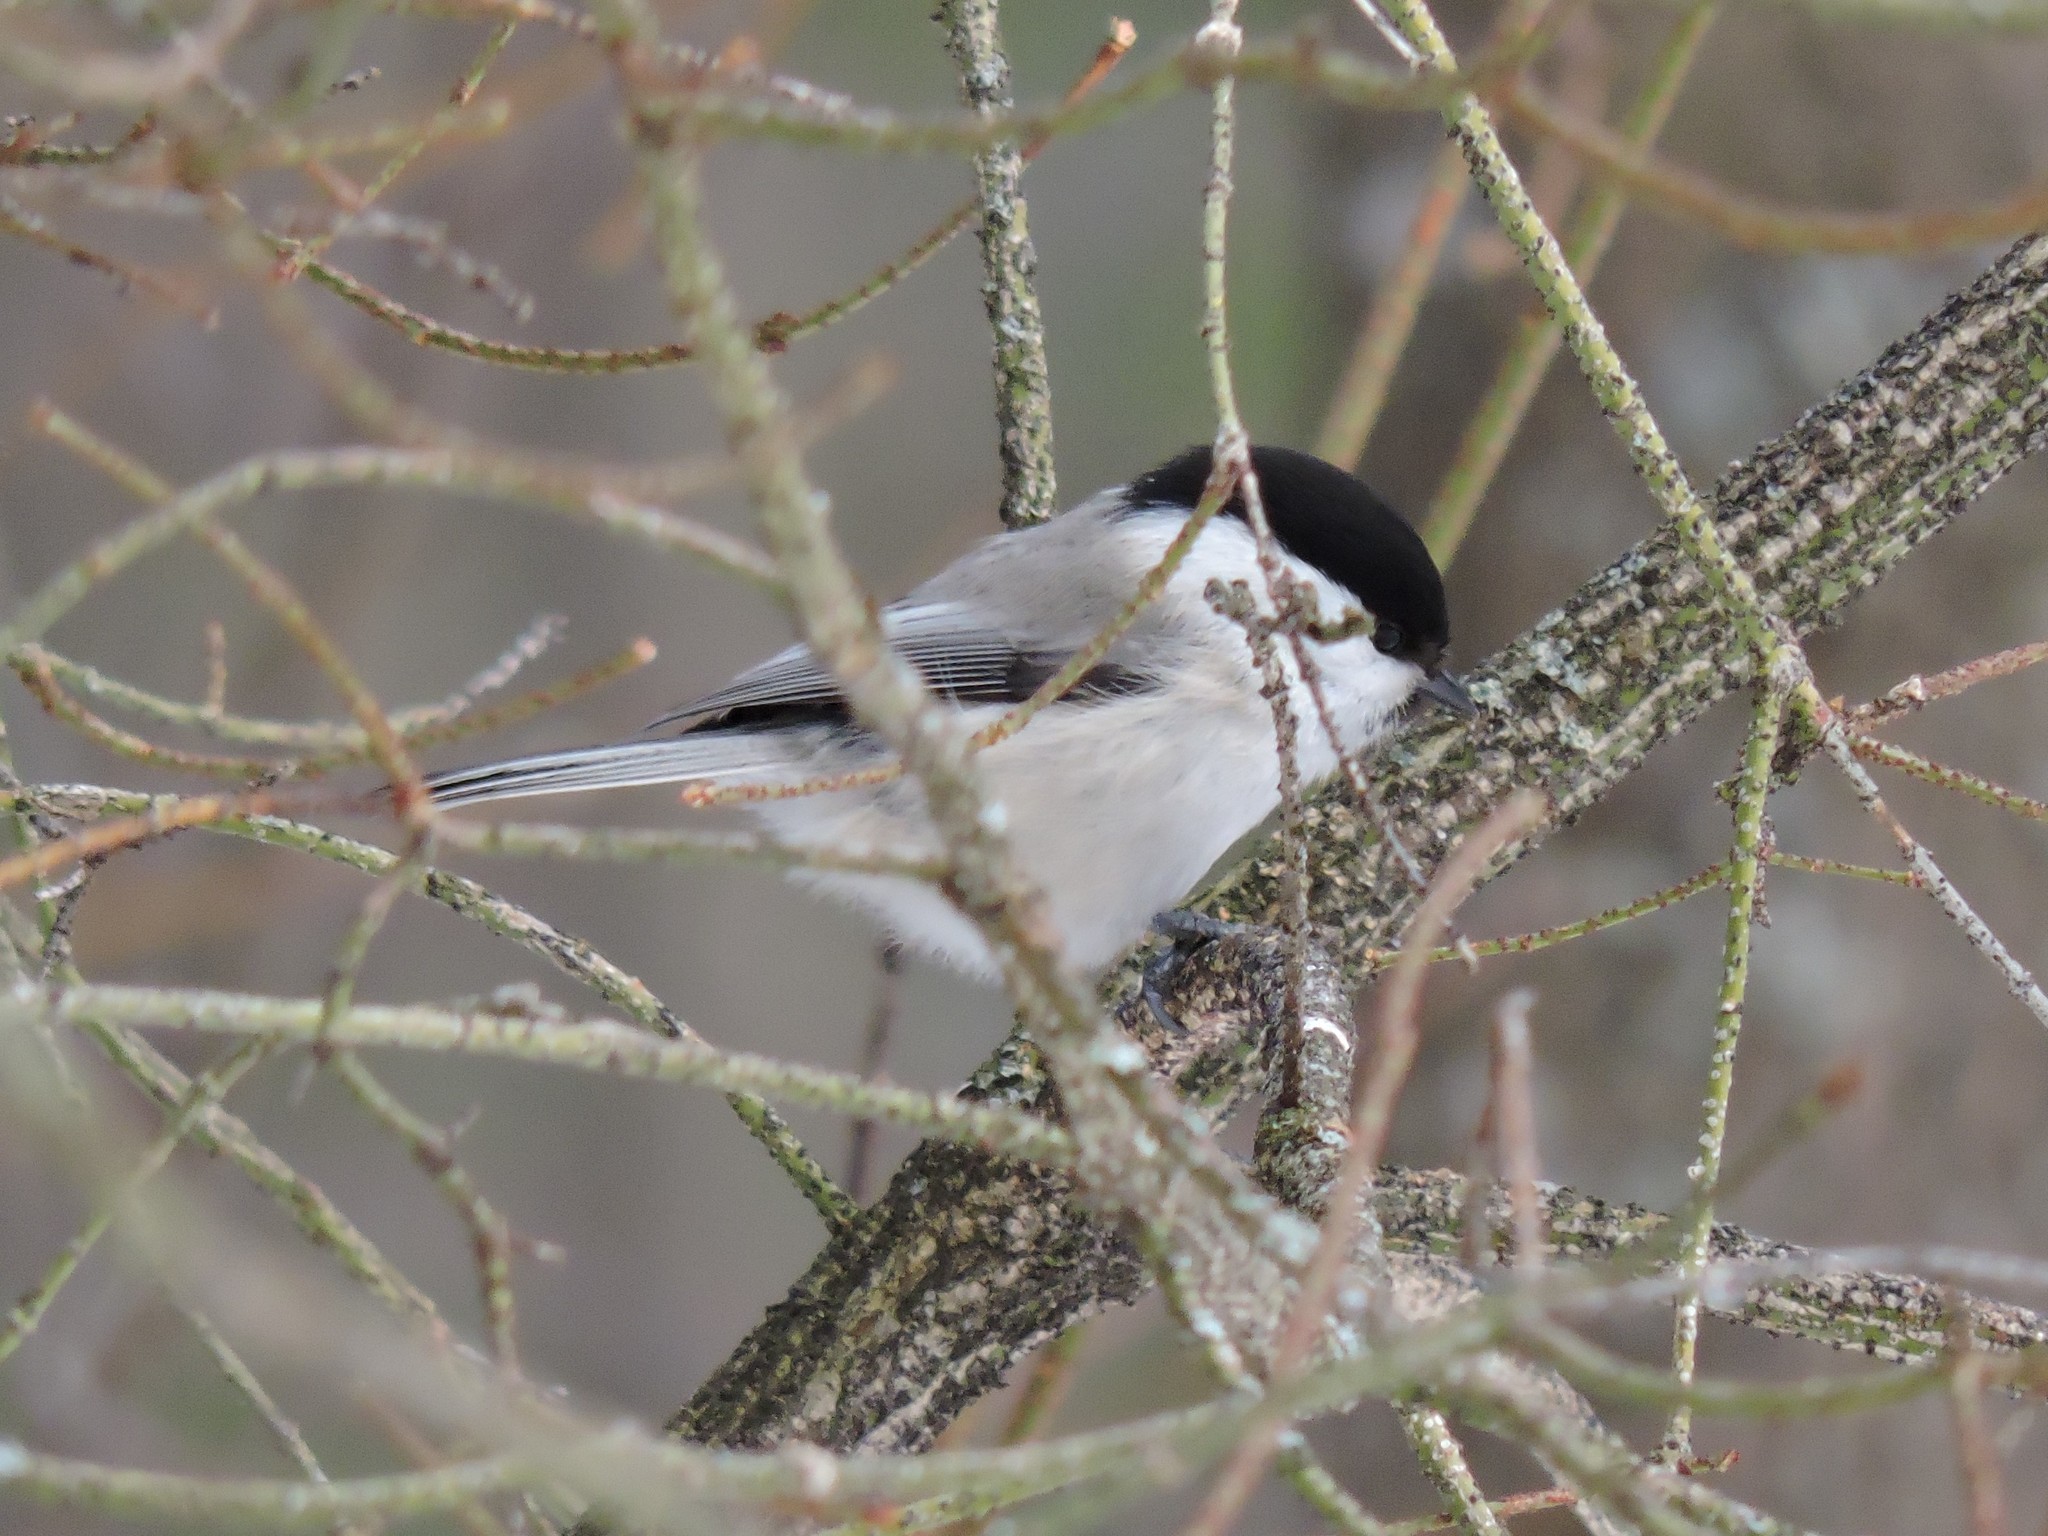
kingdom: Animalia
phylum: Chordata
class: Aves
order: Passeriformes
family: Paridae
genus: Poecile
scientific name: Poecile montanus
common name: Willow tit
